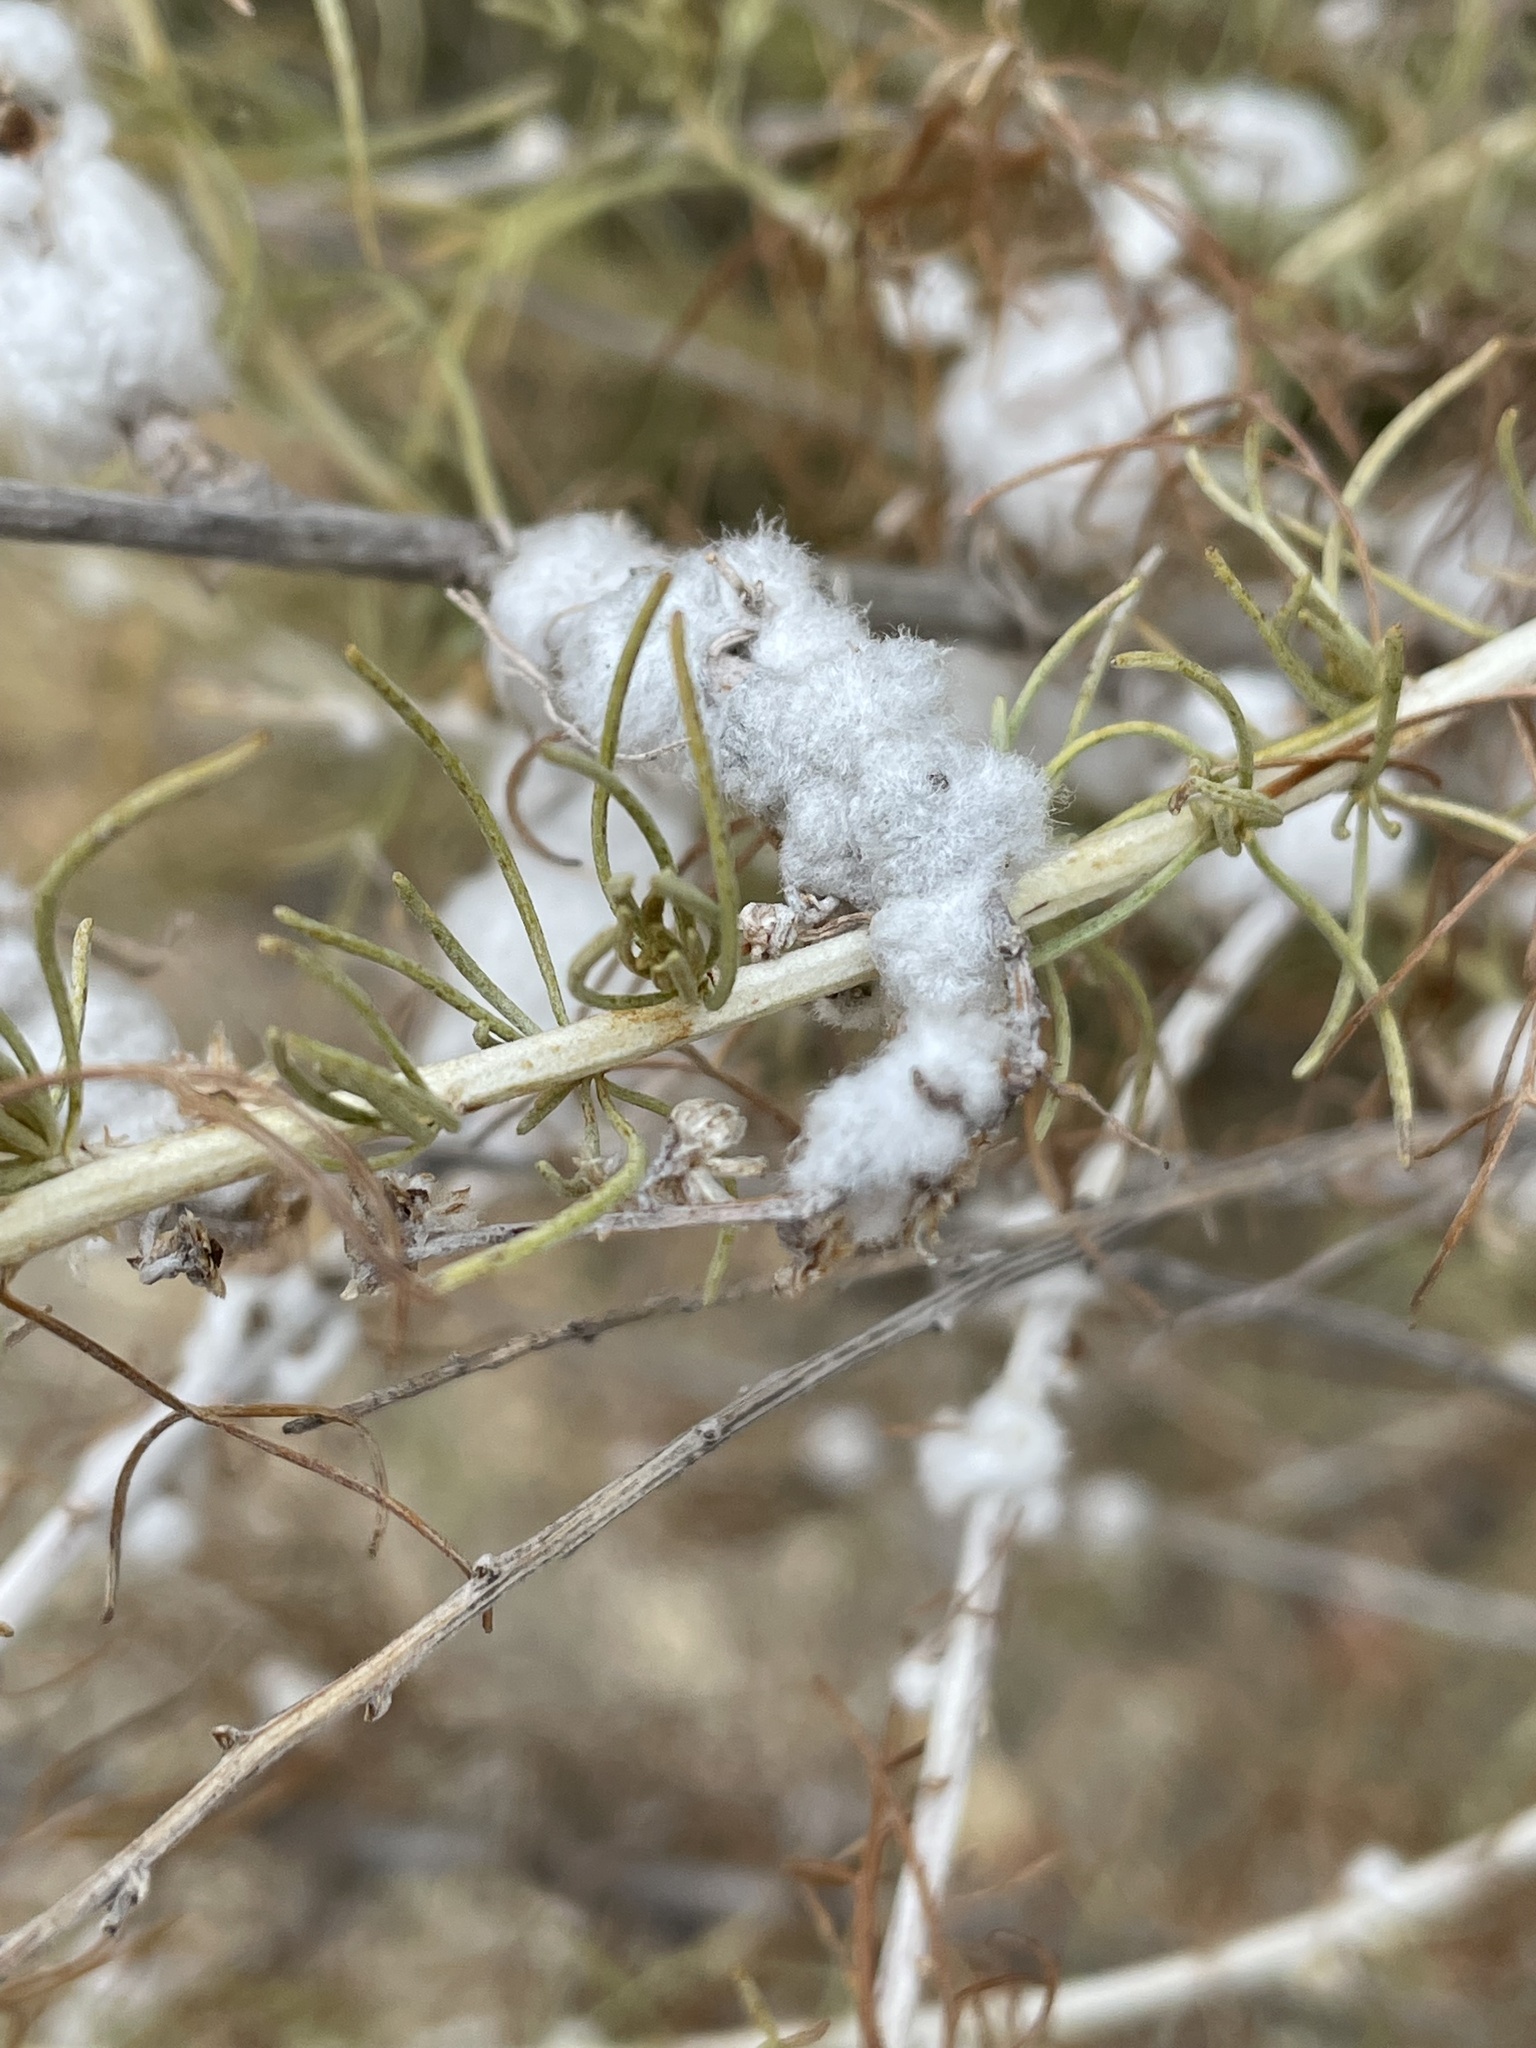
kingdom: Animalia
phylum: Arthropoda
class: Insecta
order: Diptera
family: Cecidomyiidae
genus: Rhopalomyia
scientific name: Rhopalomyia floccosa
